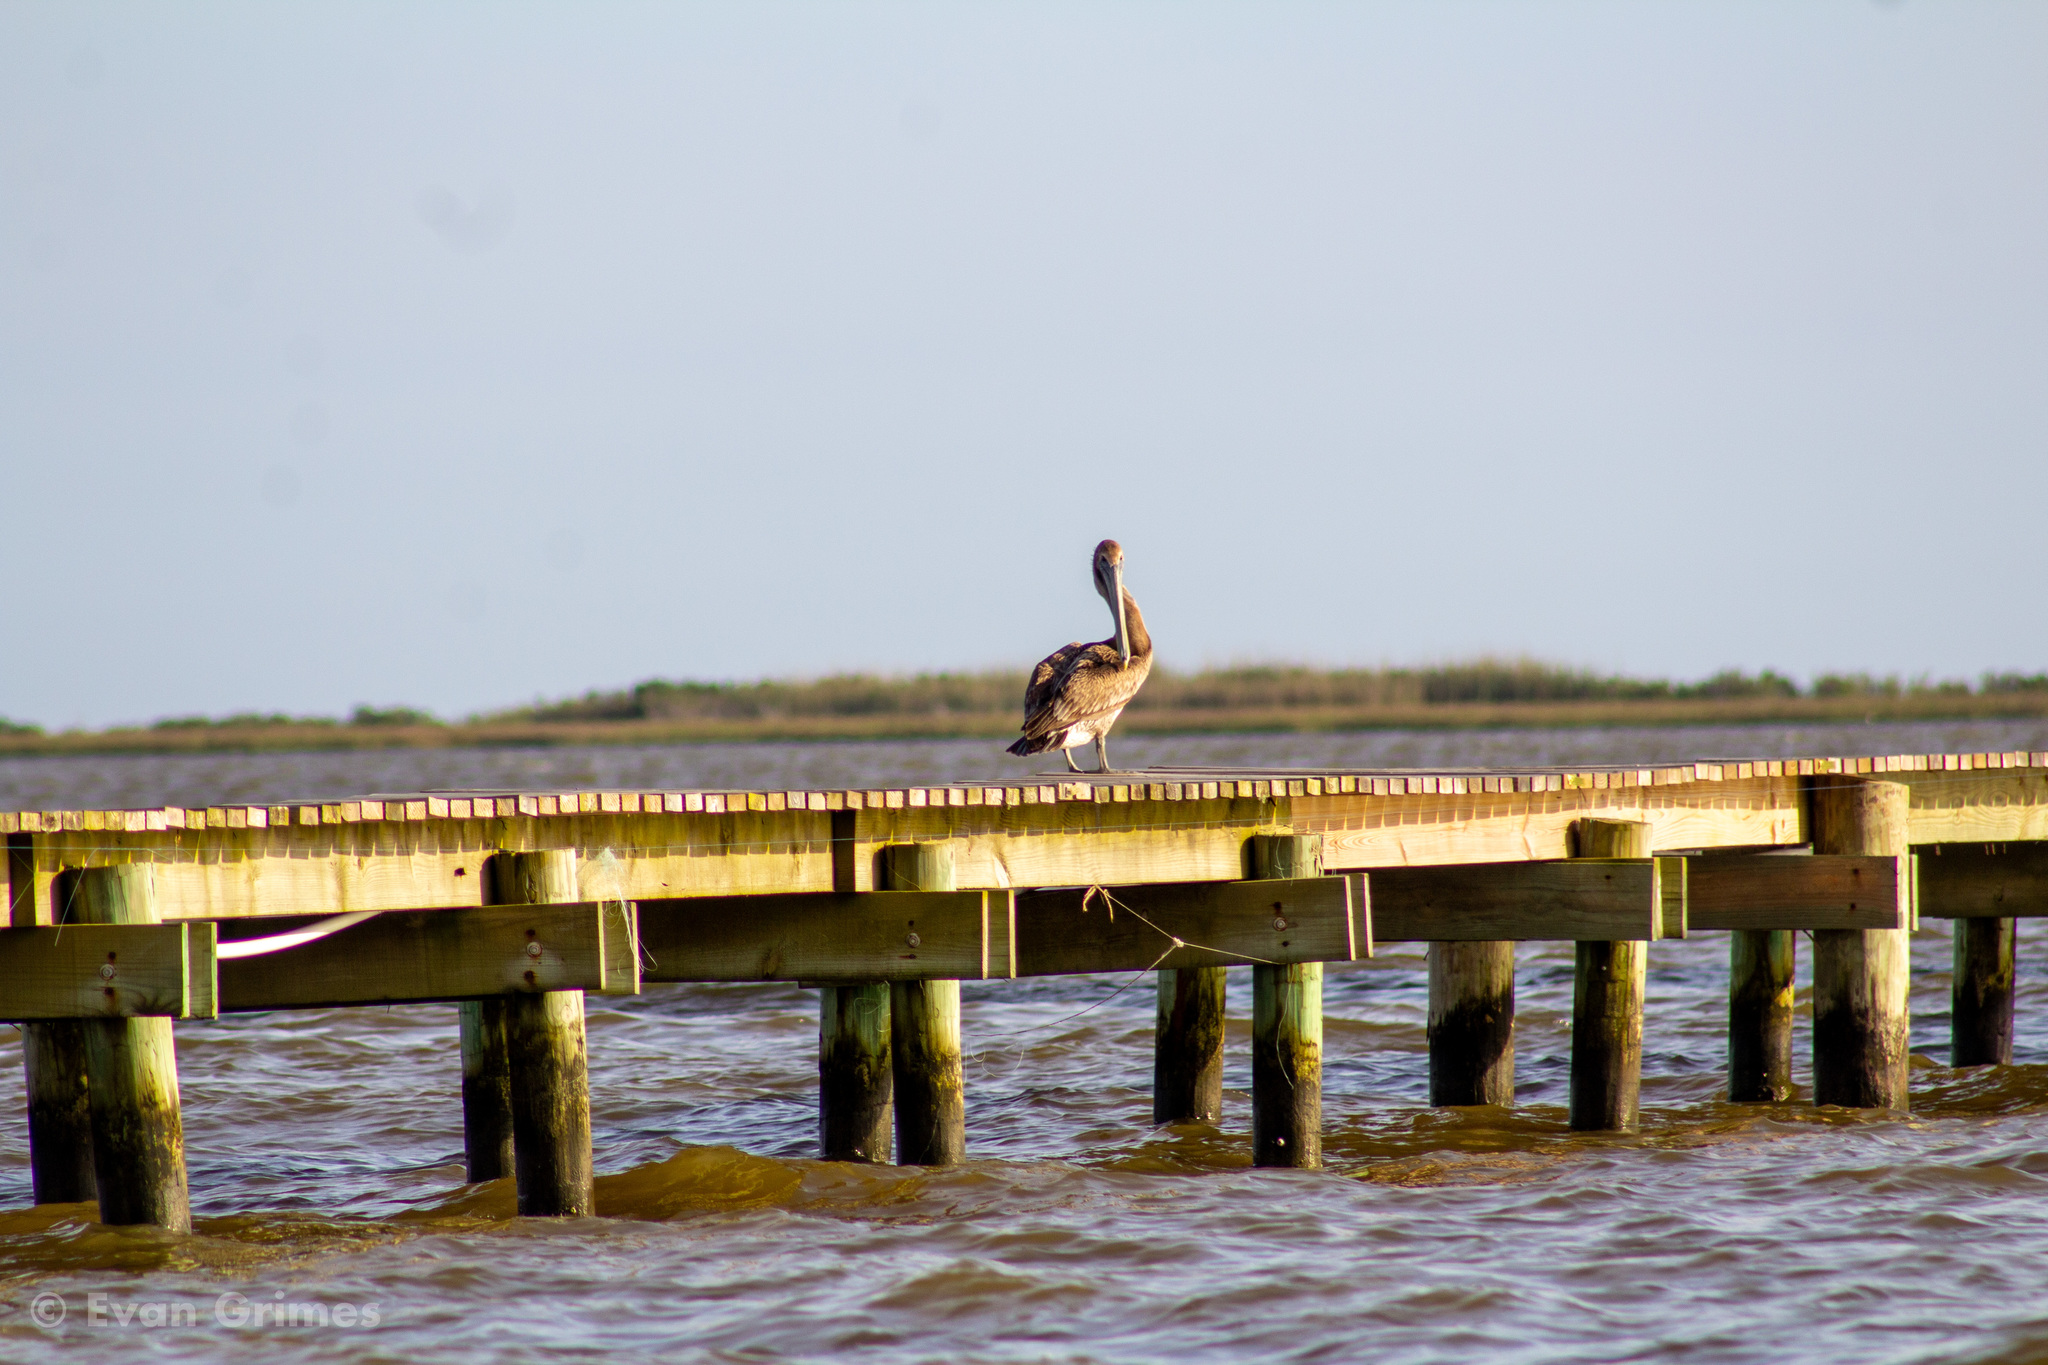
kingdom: Animalia
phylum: Chordata
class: Aves
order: Pelecaniformes
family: Pelecanidae
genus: Pelecanus
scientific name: Pelecanus occidentalis
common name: Brown pelican
